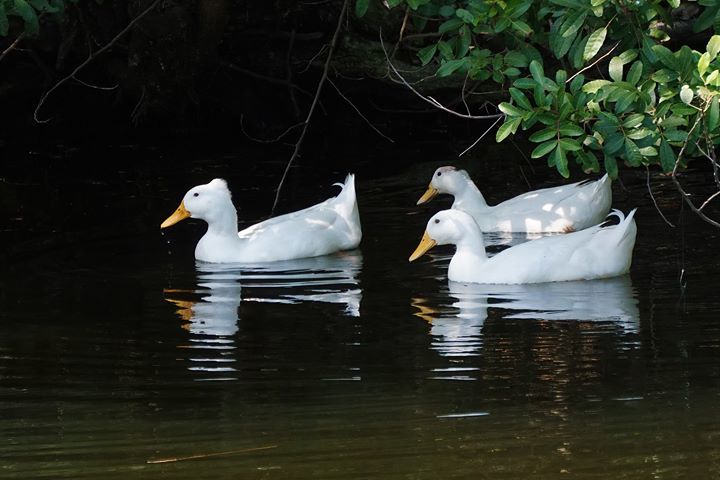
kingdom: Animalia
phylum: Chordata
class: Aves
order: Anseriformes
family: Anatidae
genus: Anas
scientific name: Anas platyrhynchos
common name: Mallard
